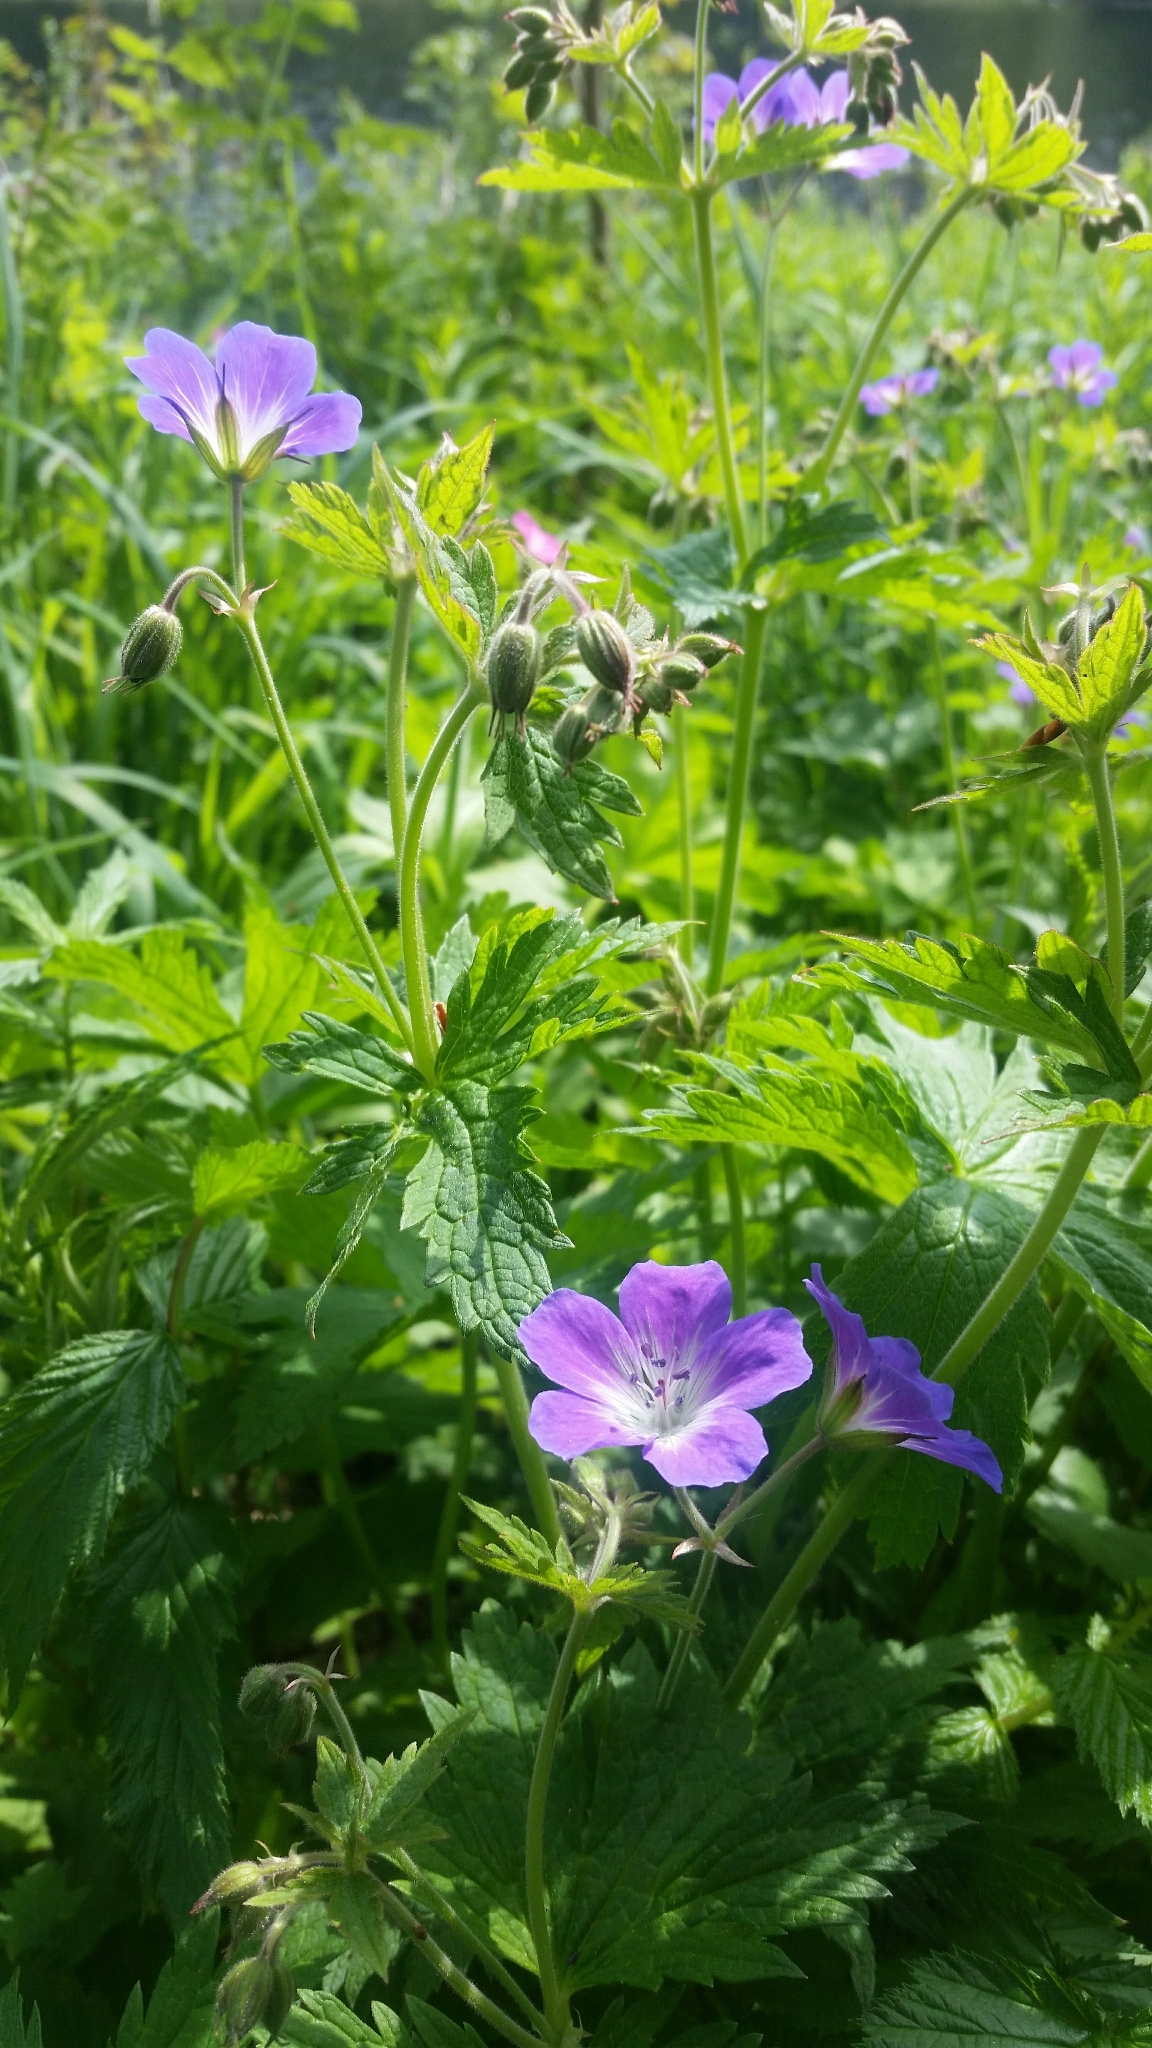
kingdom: Plantae
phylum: Tracheophyta
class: Magnoliopsida
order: Geraniales
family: Geraniaceae
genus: Geranium
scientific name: Geranium sylvaticum
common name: Wood crane's-bill
